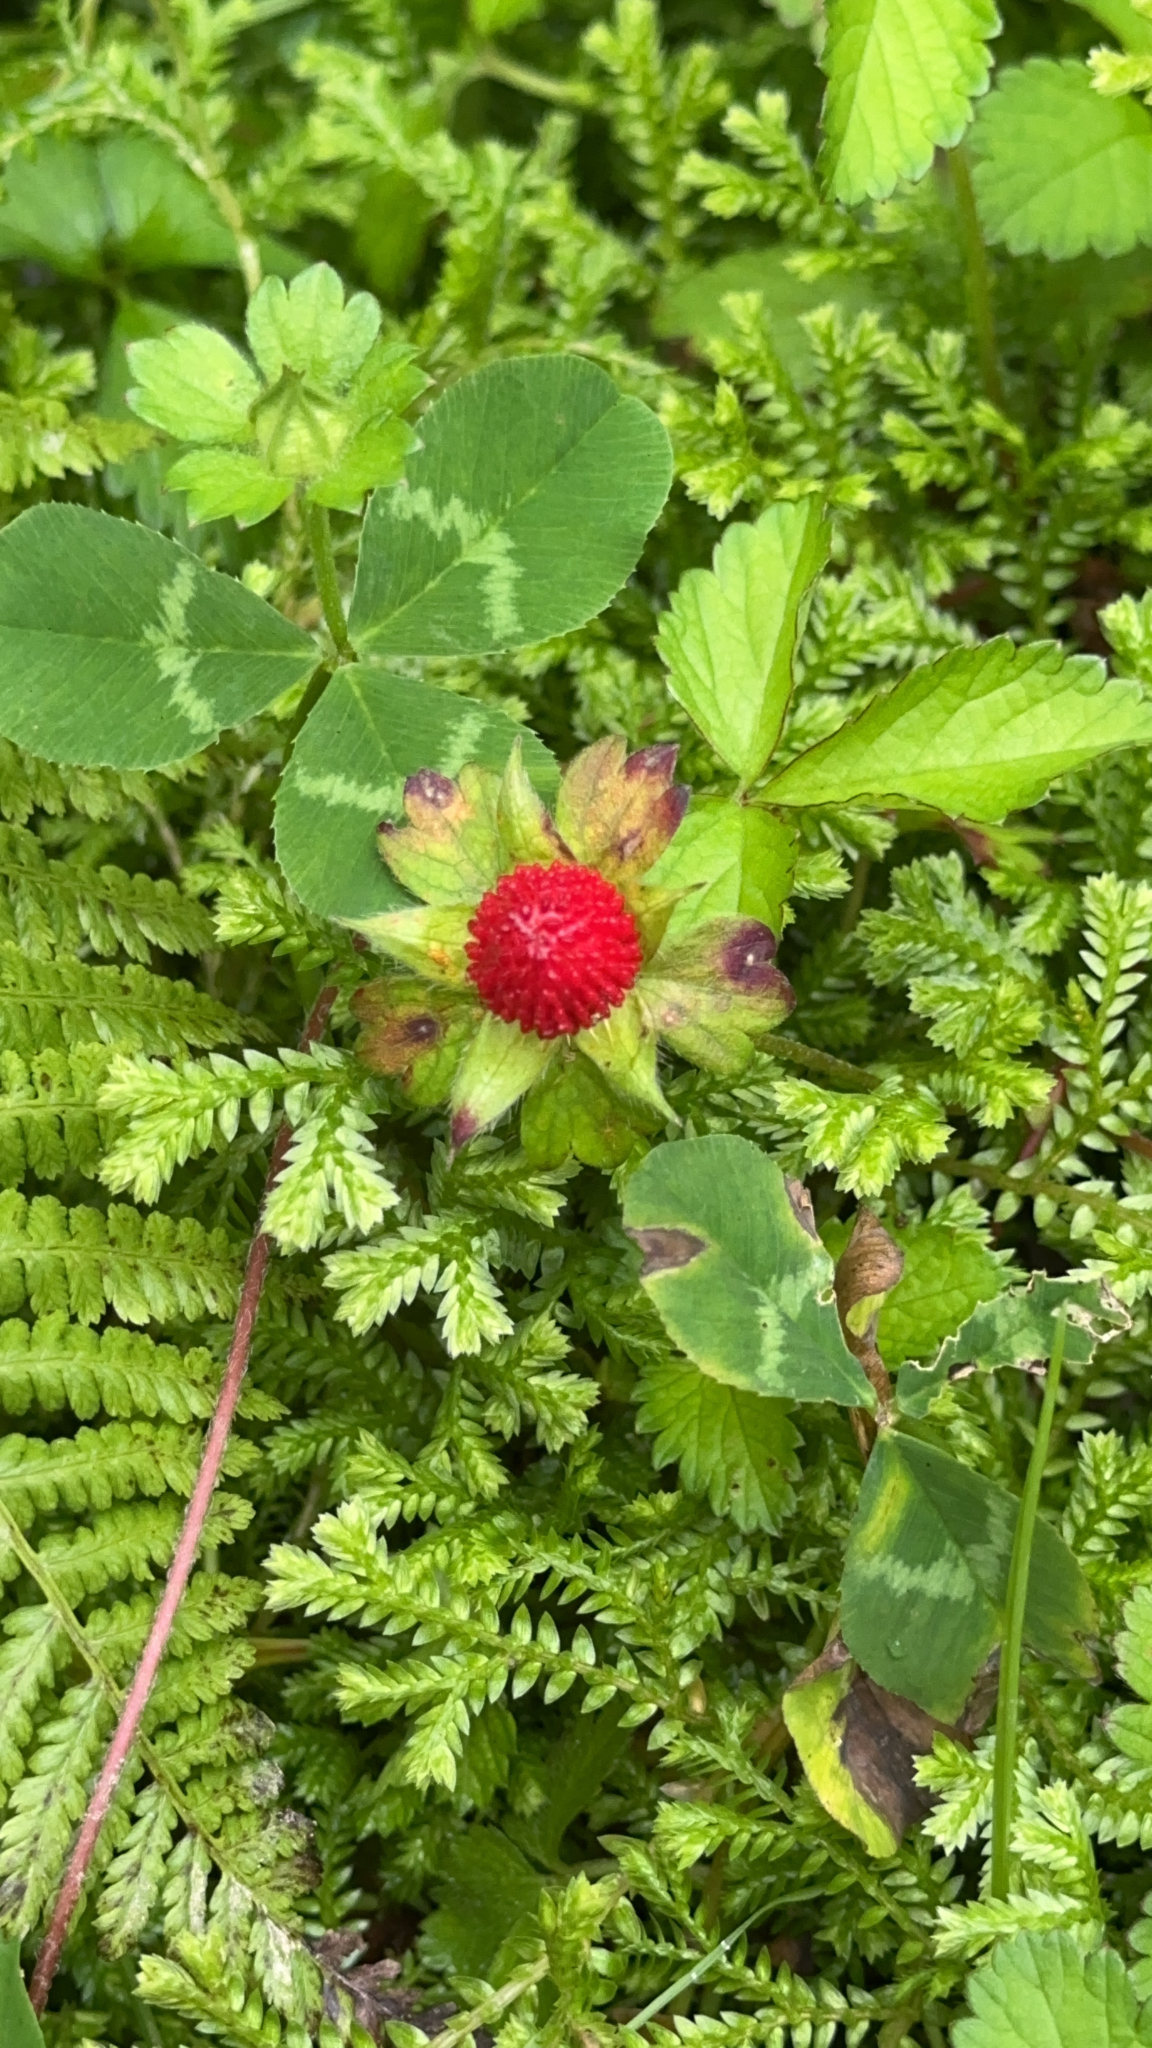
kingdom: Plantae
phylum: Tracheophyta
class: Magnoliopsida
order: Rosales
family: Rosaceae
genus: Potentilla
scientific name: Potentilla indica
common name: Yellow-flowered strawberry
